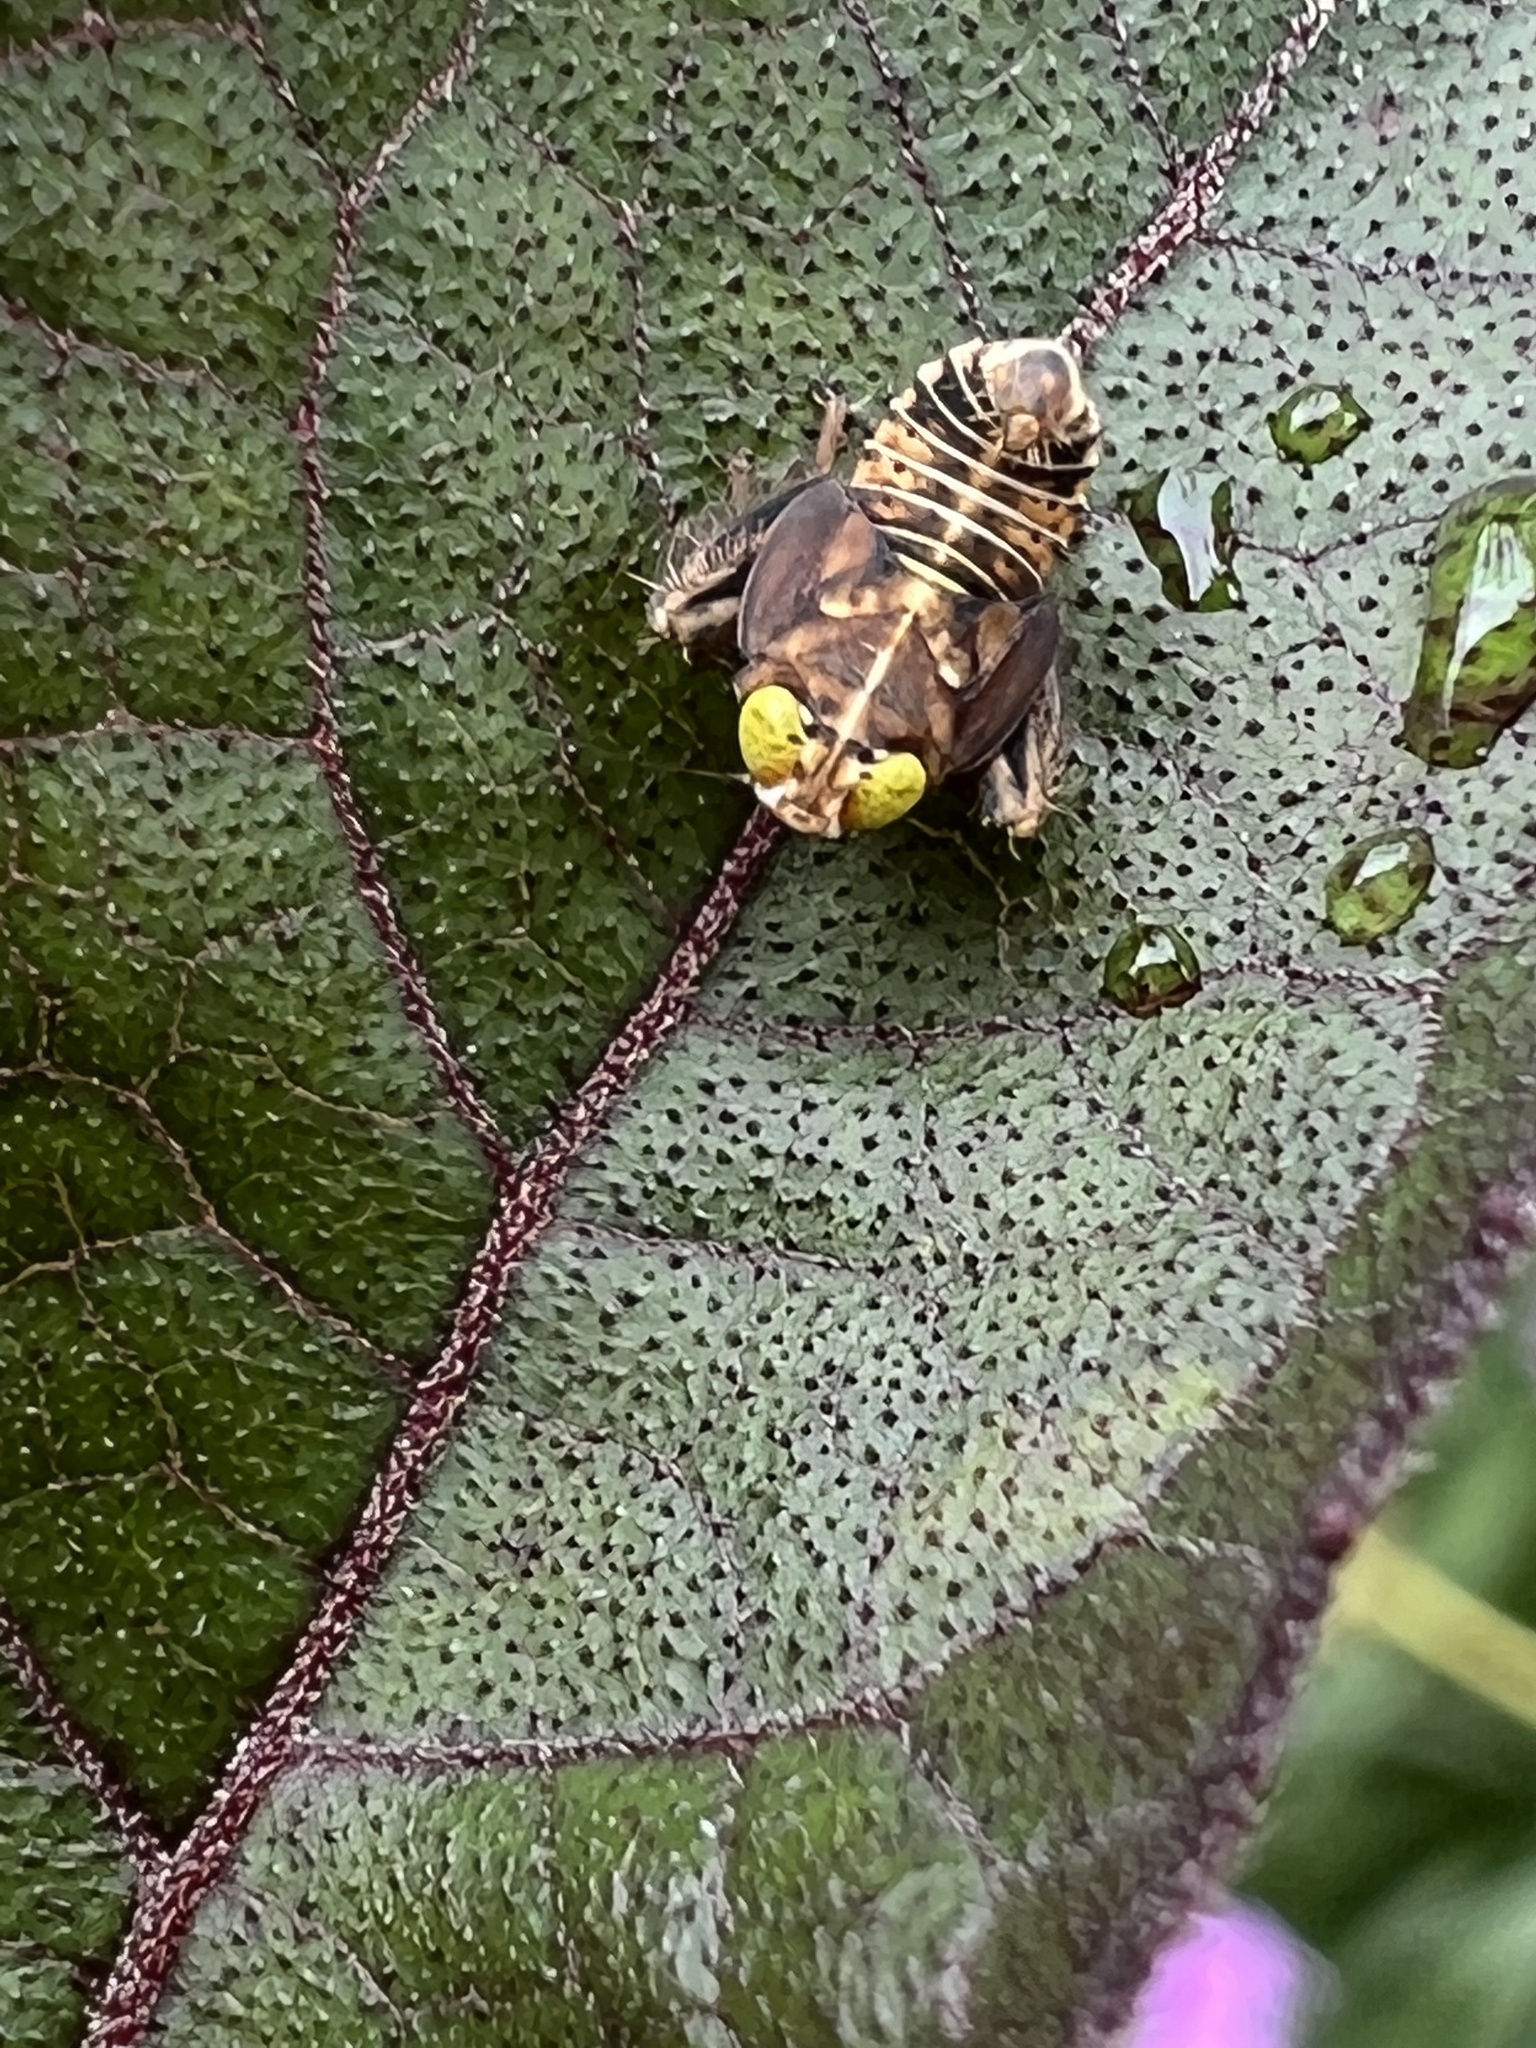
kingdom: Animalia
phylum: Arthropoda
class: Insecta
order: Hemiptera
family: Cicadellidae
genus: Jikradia
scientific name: Jikradia olitoria
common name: Coppery leafhopper
